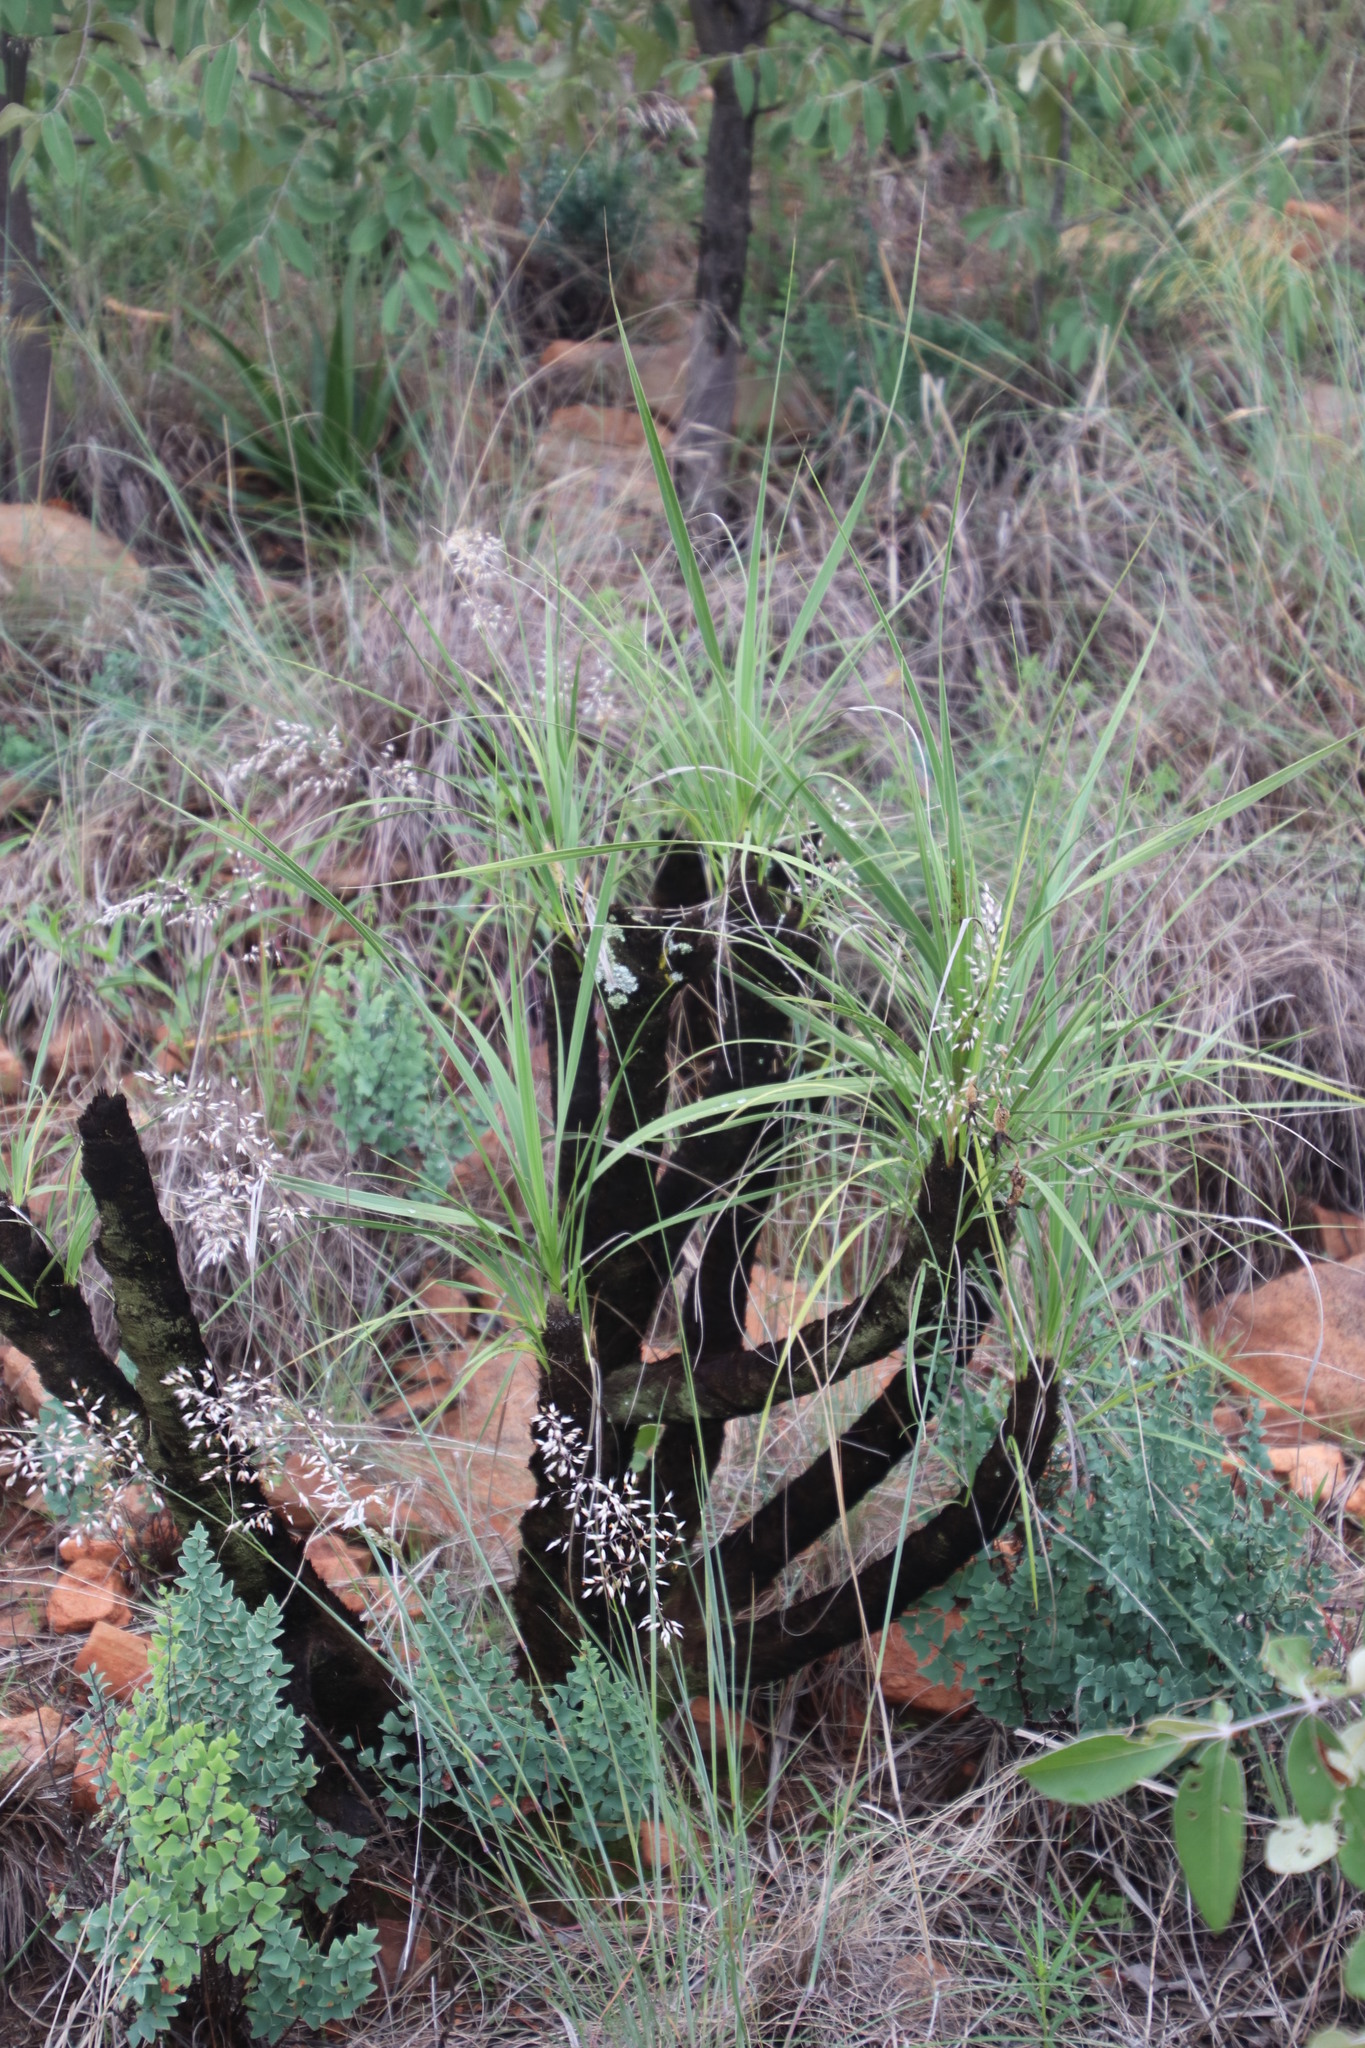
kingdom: Plantae
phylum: Tracheophyta
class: Liliopsida
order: Pandanales
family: Velloziaceae
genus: Xerophyta
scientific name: Xerophyta retinervis
